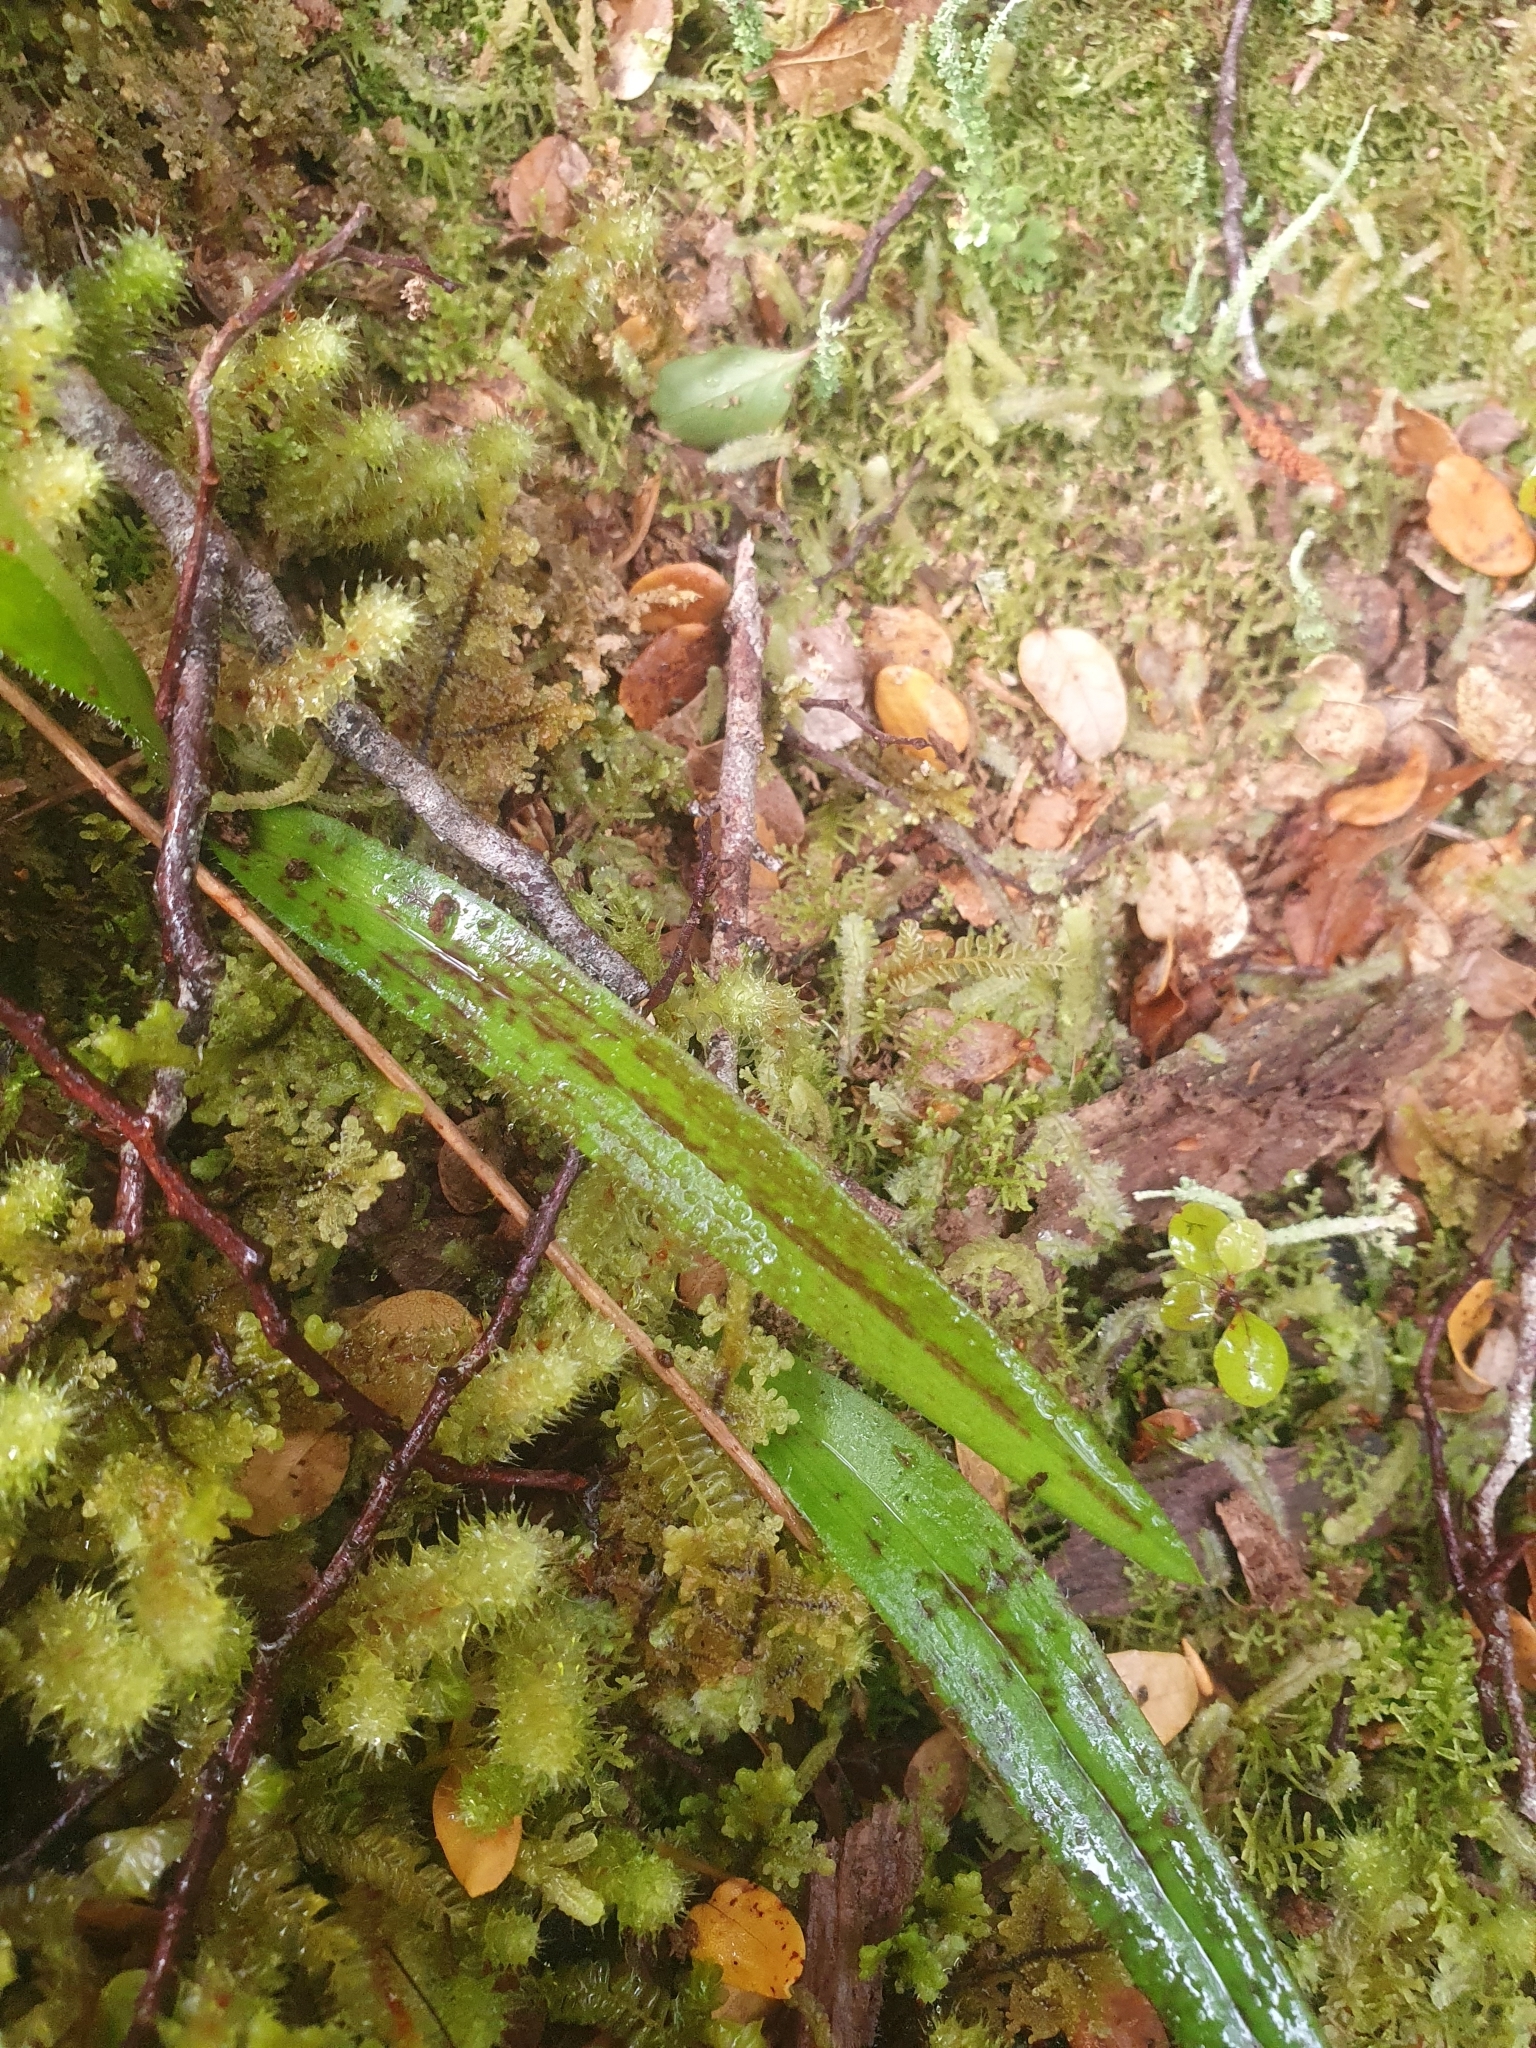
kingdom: Plantae
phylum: Tracheophyta
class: Liliopsida
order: Asparagales
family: Orchidaceae
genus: Aporostylis
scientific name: Aporostylis bifolia
